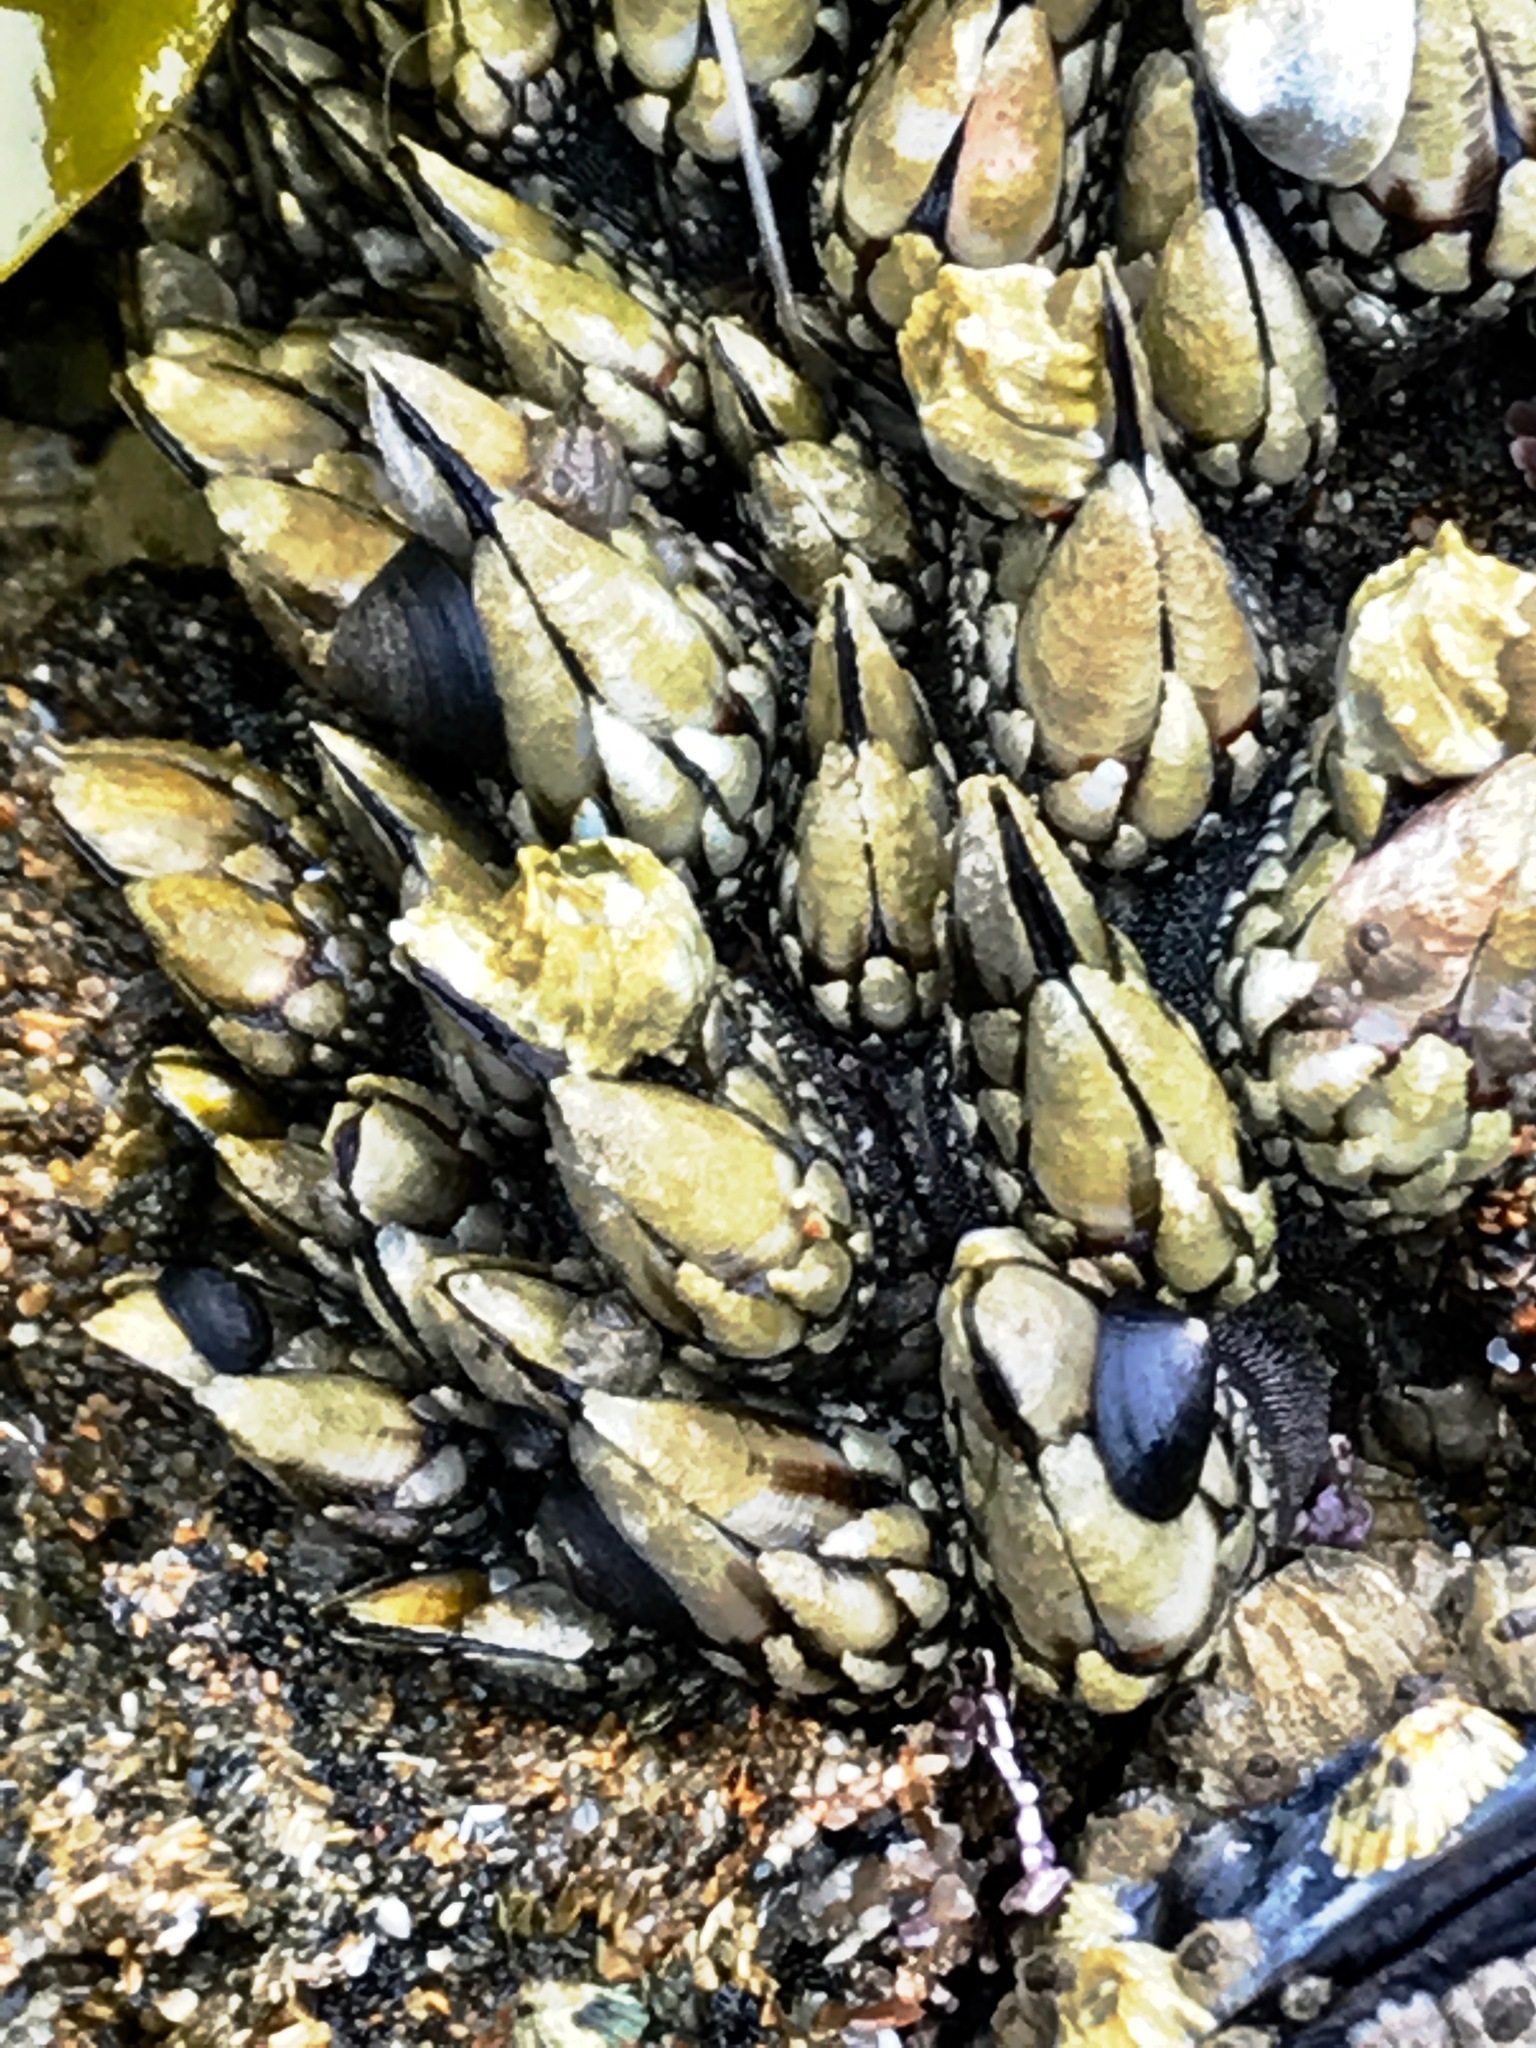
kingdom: Animalia
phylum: Arthropoda
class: Maxillopoda
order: Pedunculata
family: Pollicipedidae
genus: Pollicipes
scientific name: Pollicipes polymerus
